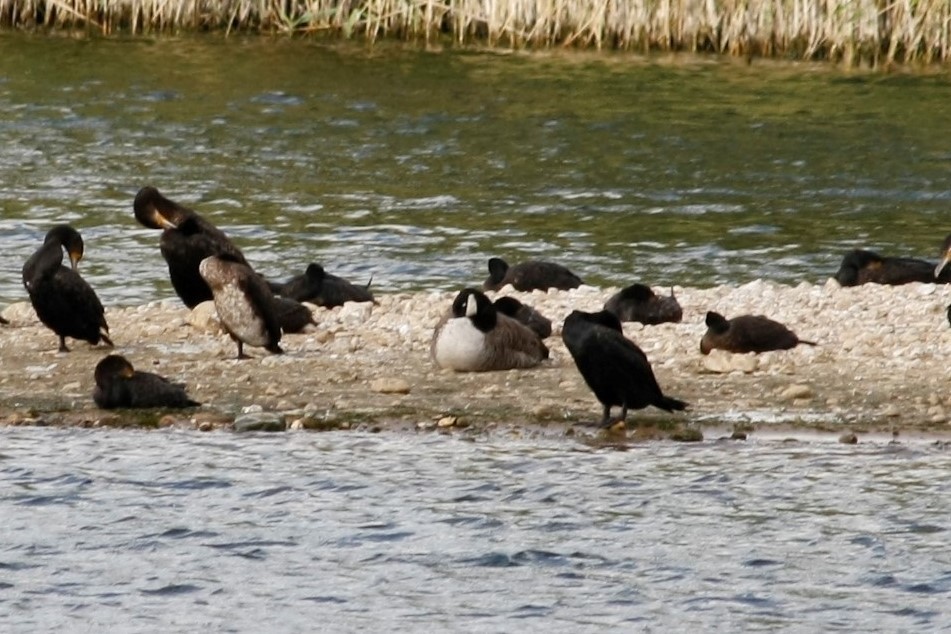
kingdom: Animalia
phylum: Chordata
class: Aves
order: Anseriformes
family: Anatidae
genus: Branta
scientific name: Branta canadensis
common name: Canada goose
